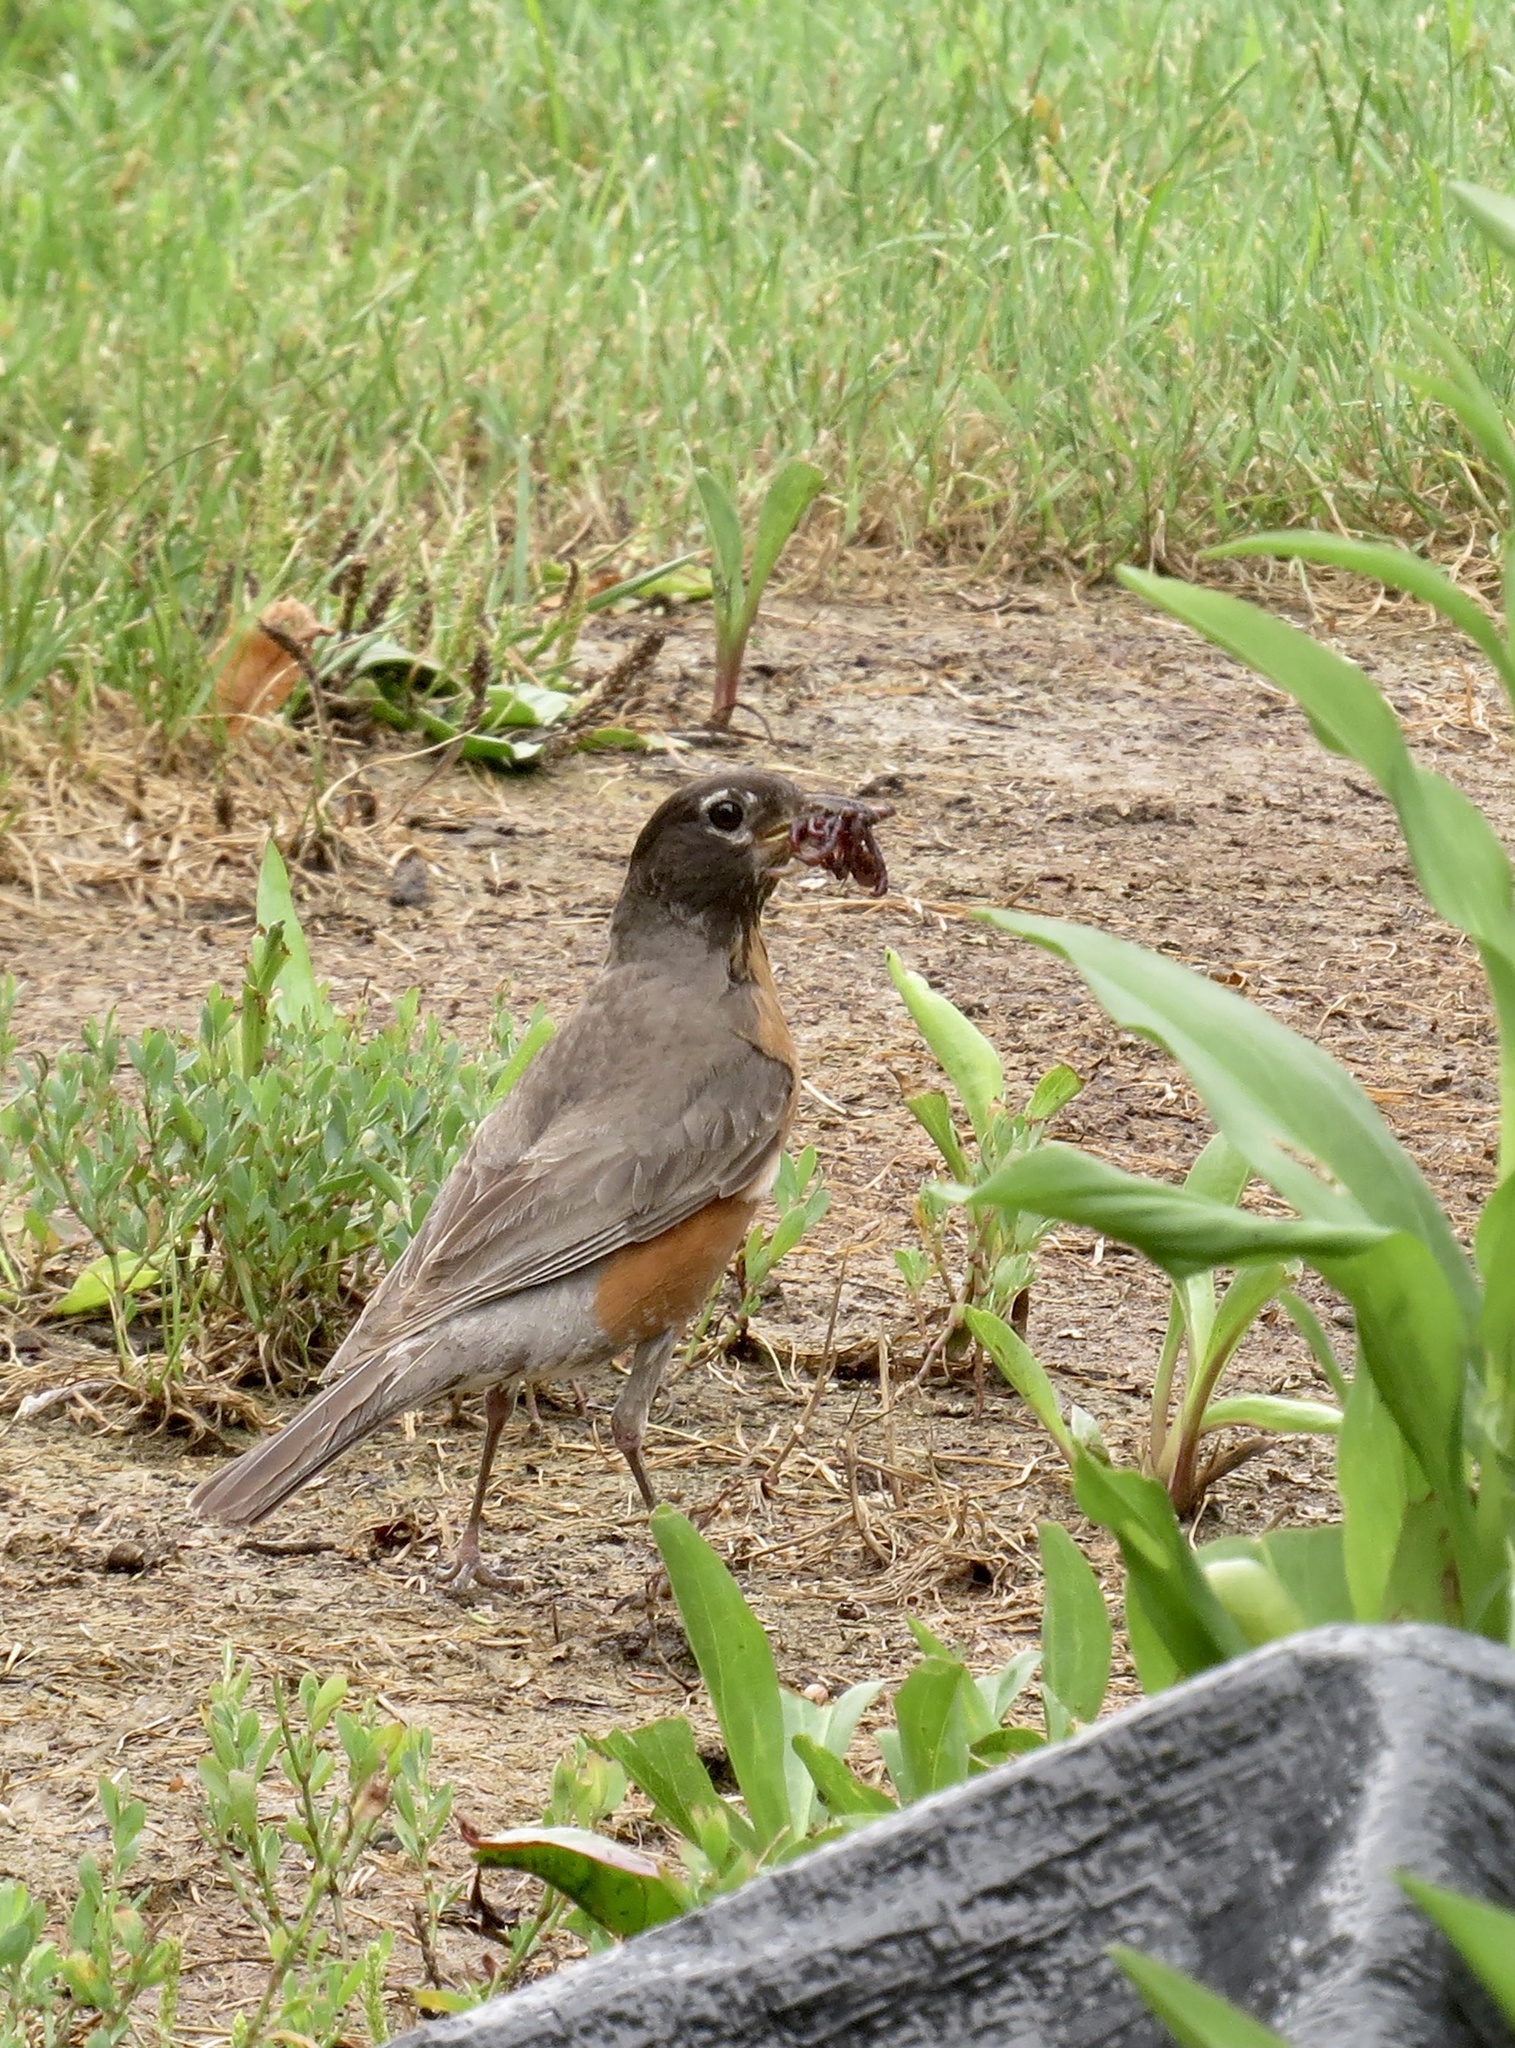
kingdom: Animalia
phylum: Chordata
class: Aves
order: Passeriformes
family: Turdidae
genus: Turdus
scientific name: Turdus migratorius
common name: American robin
